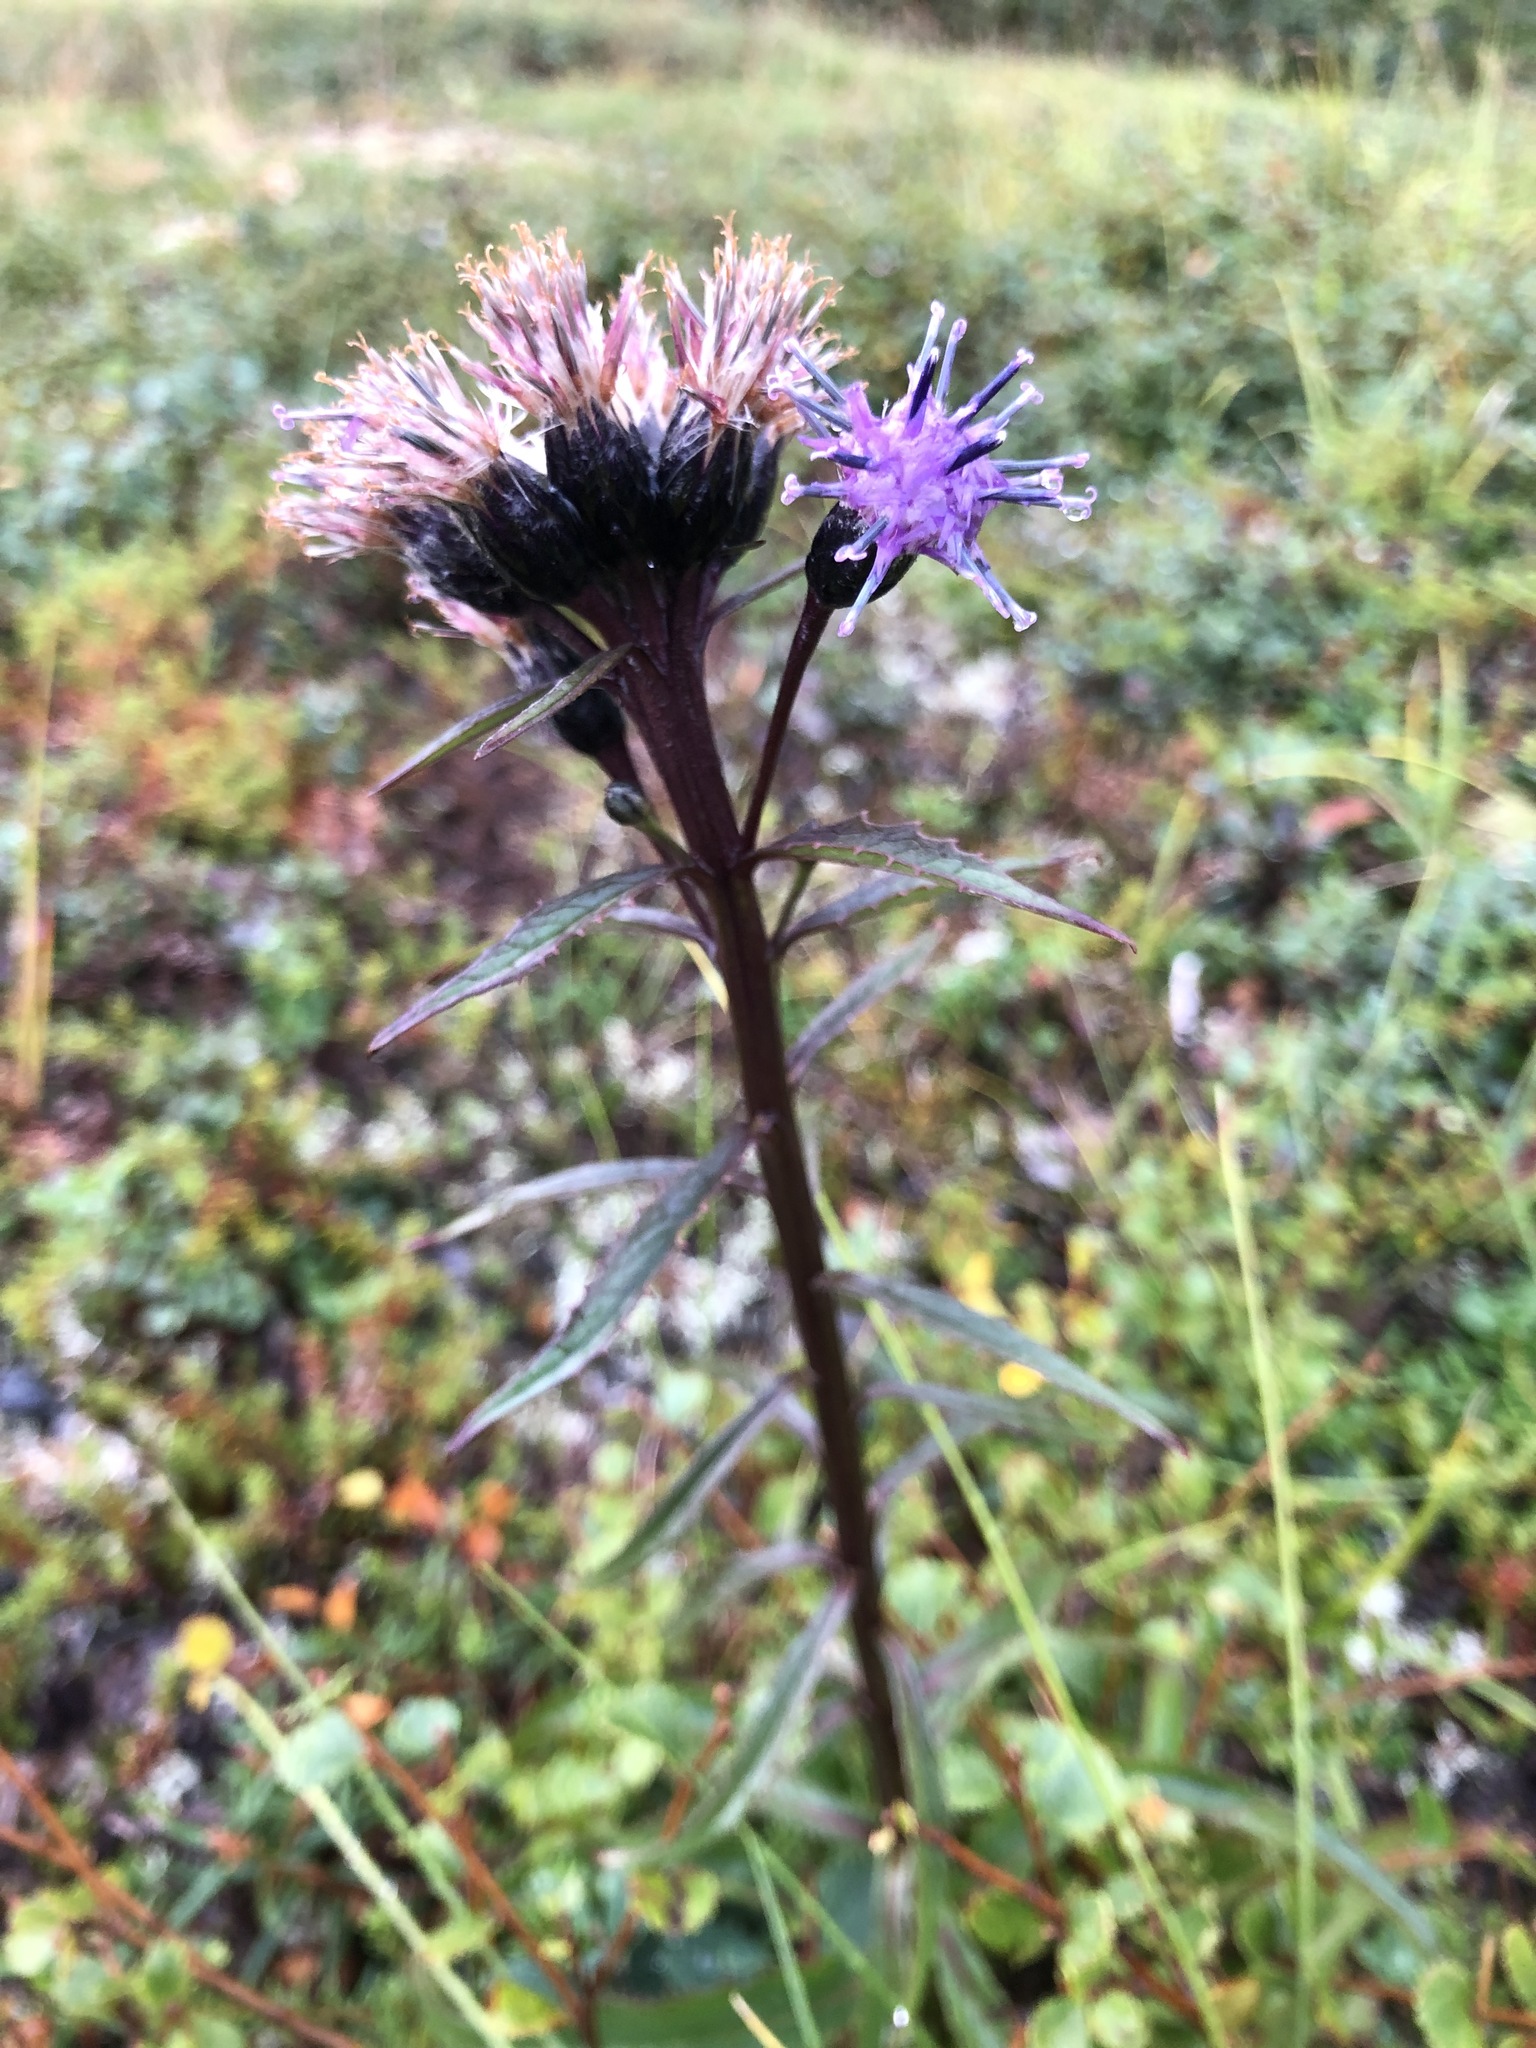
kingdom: Plantae
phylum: Tracheophyta
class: Magnoliopsida
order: Asterales
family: Asteraceae
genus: Saussurea
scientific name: Saussurea alpina
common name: Alpine saw-wort
